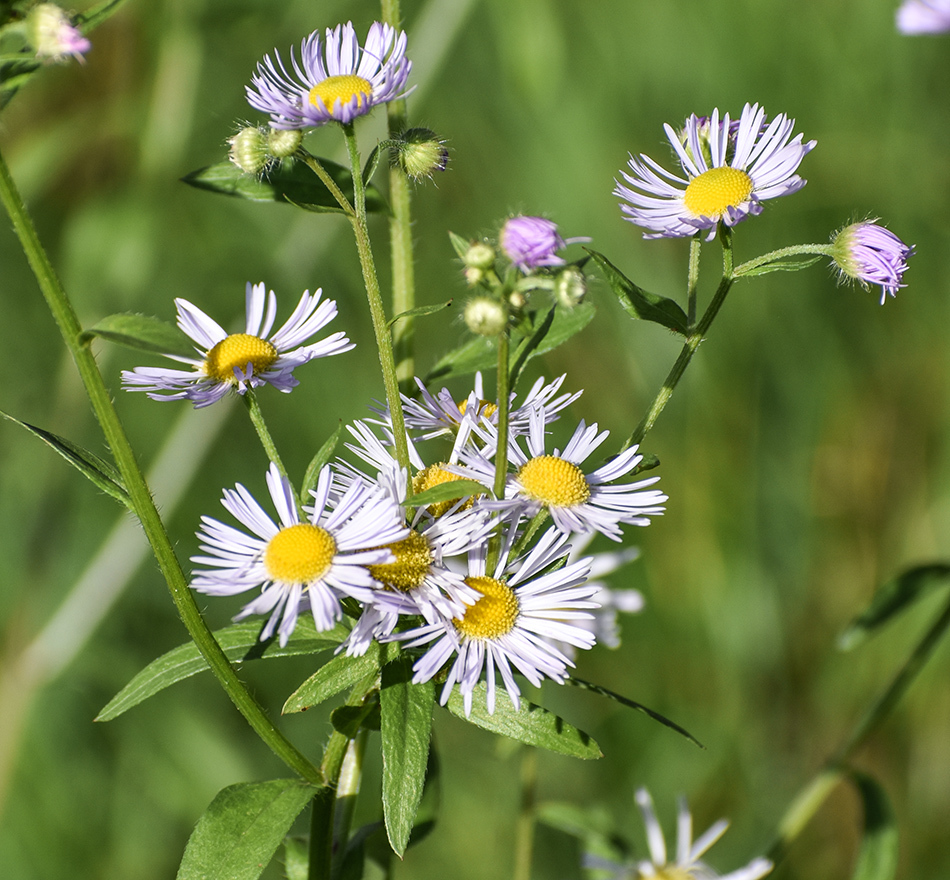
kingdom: Plantae
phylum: Tracheophyta
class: Magnoliopsida
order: Asterales
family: Asteraceae
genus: Erigeron
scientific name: Erigeron annuus
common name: Tall fleabane
